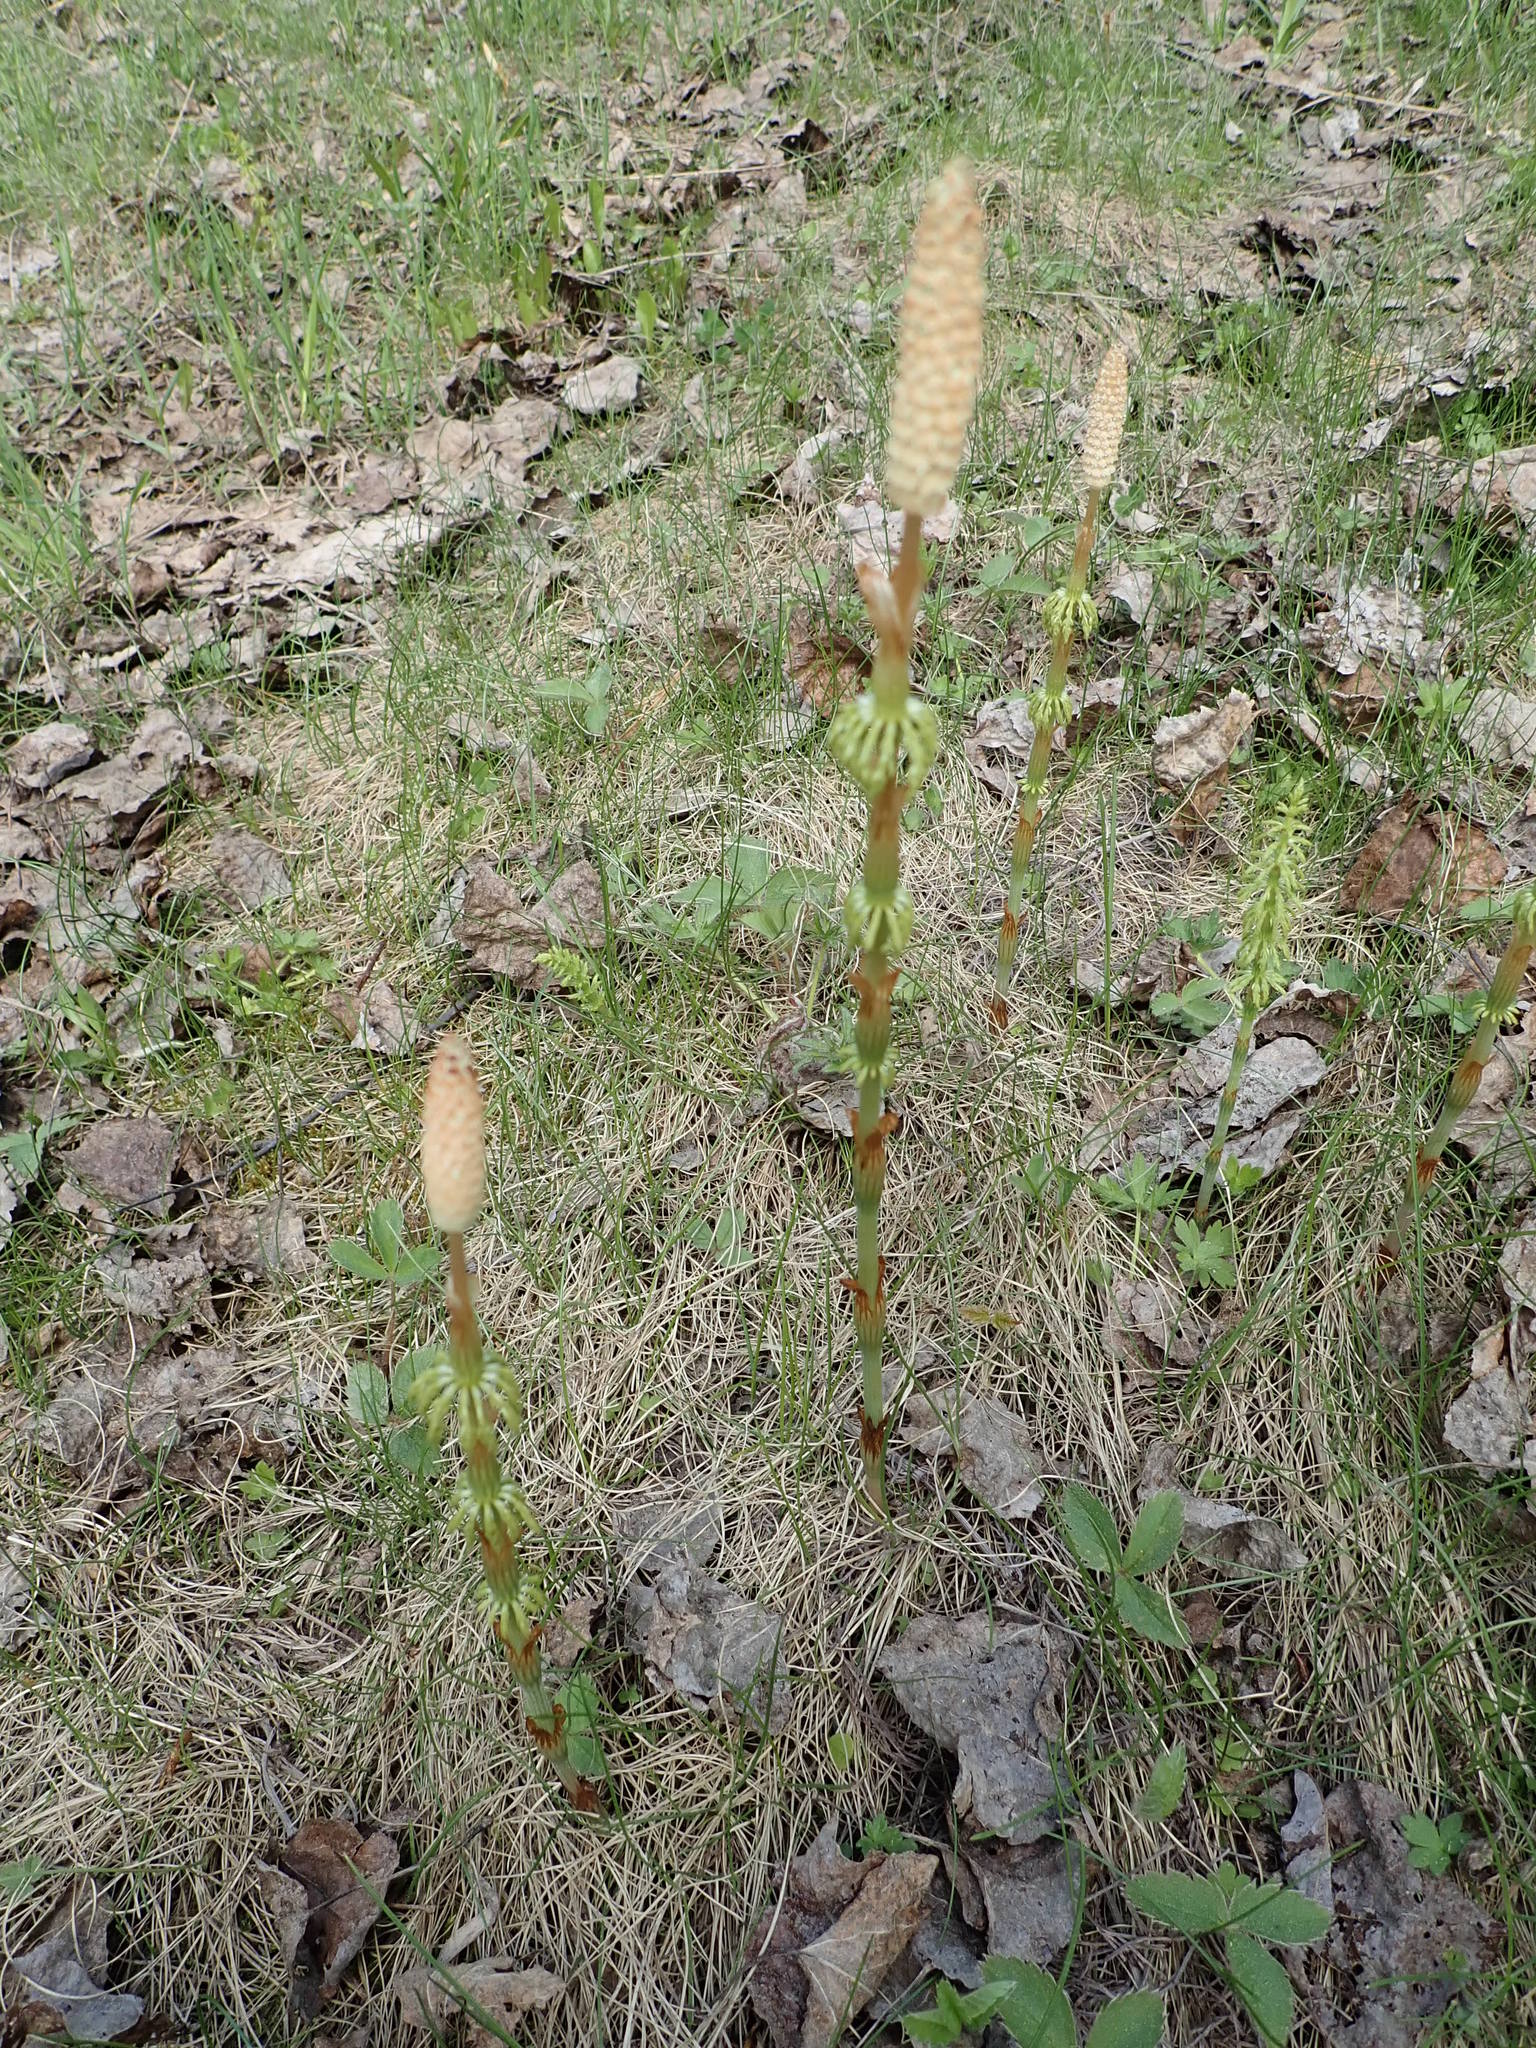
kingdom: Plantae
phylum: Tracheophyta
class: Polypodiopsida
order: Equisetales
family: Equisetaceae
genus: Equisetum
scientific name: Equisetum sylvaticum
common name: Wood horsetail
